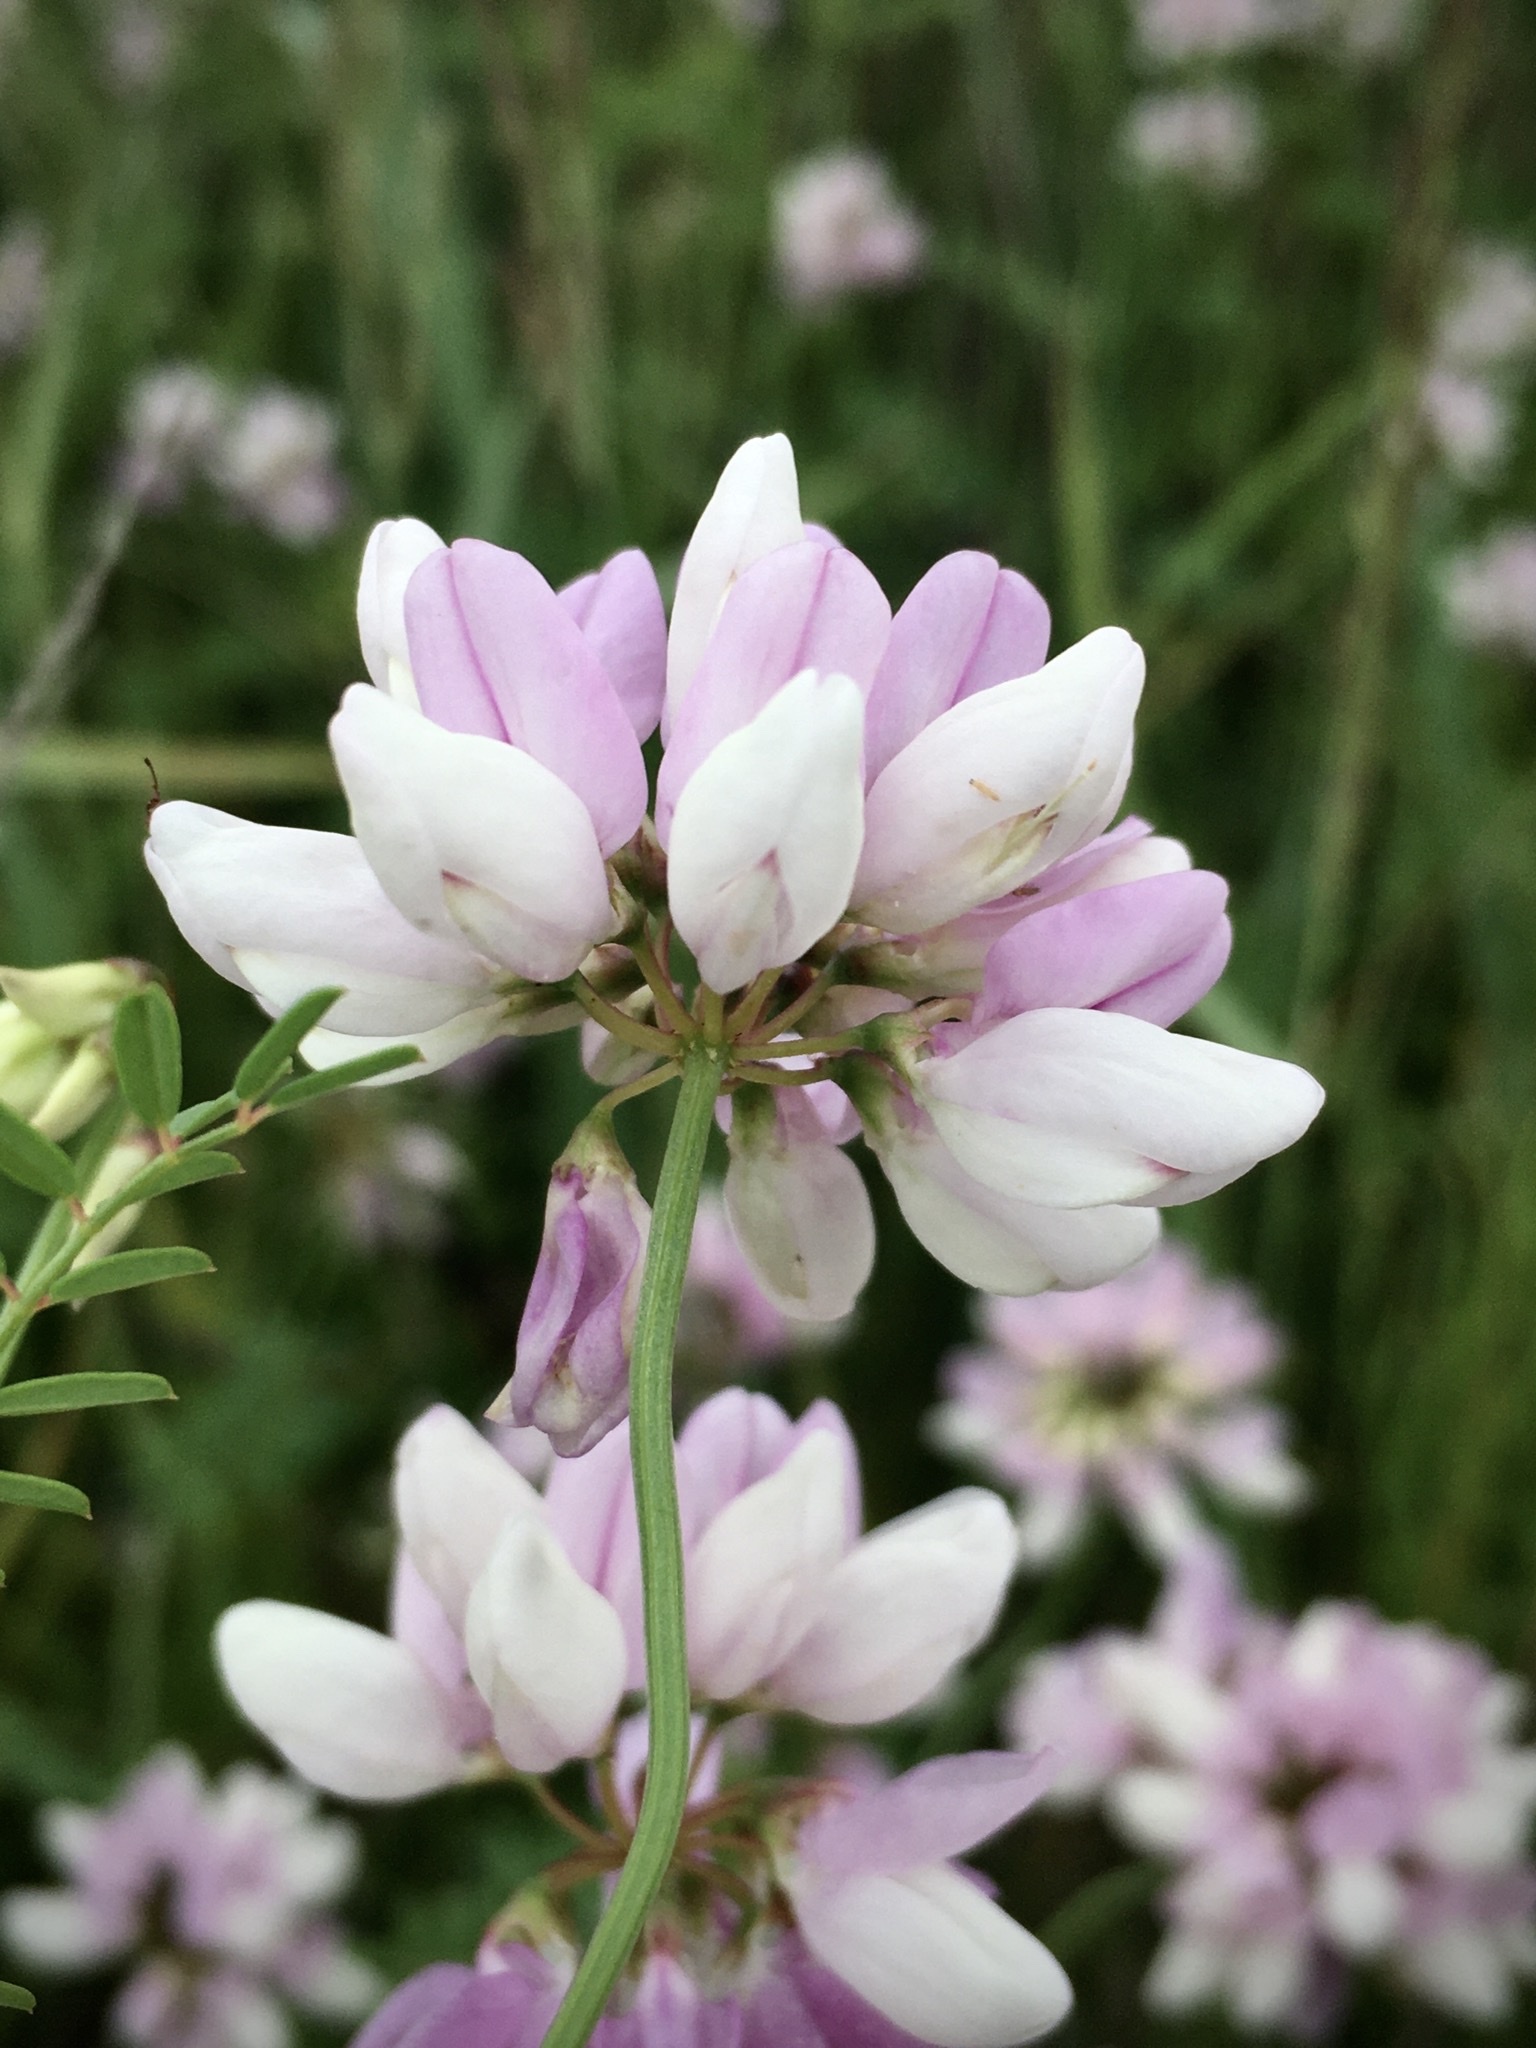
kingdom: Plantae
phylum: Tracheophyta
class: Magnoliopsida
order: Fabales
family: Fabaceae
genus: Coronilla
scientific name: Coronilla varia
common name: Crownvetch
